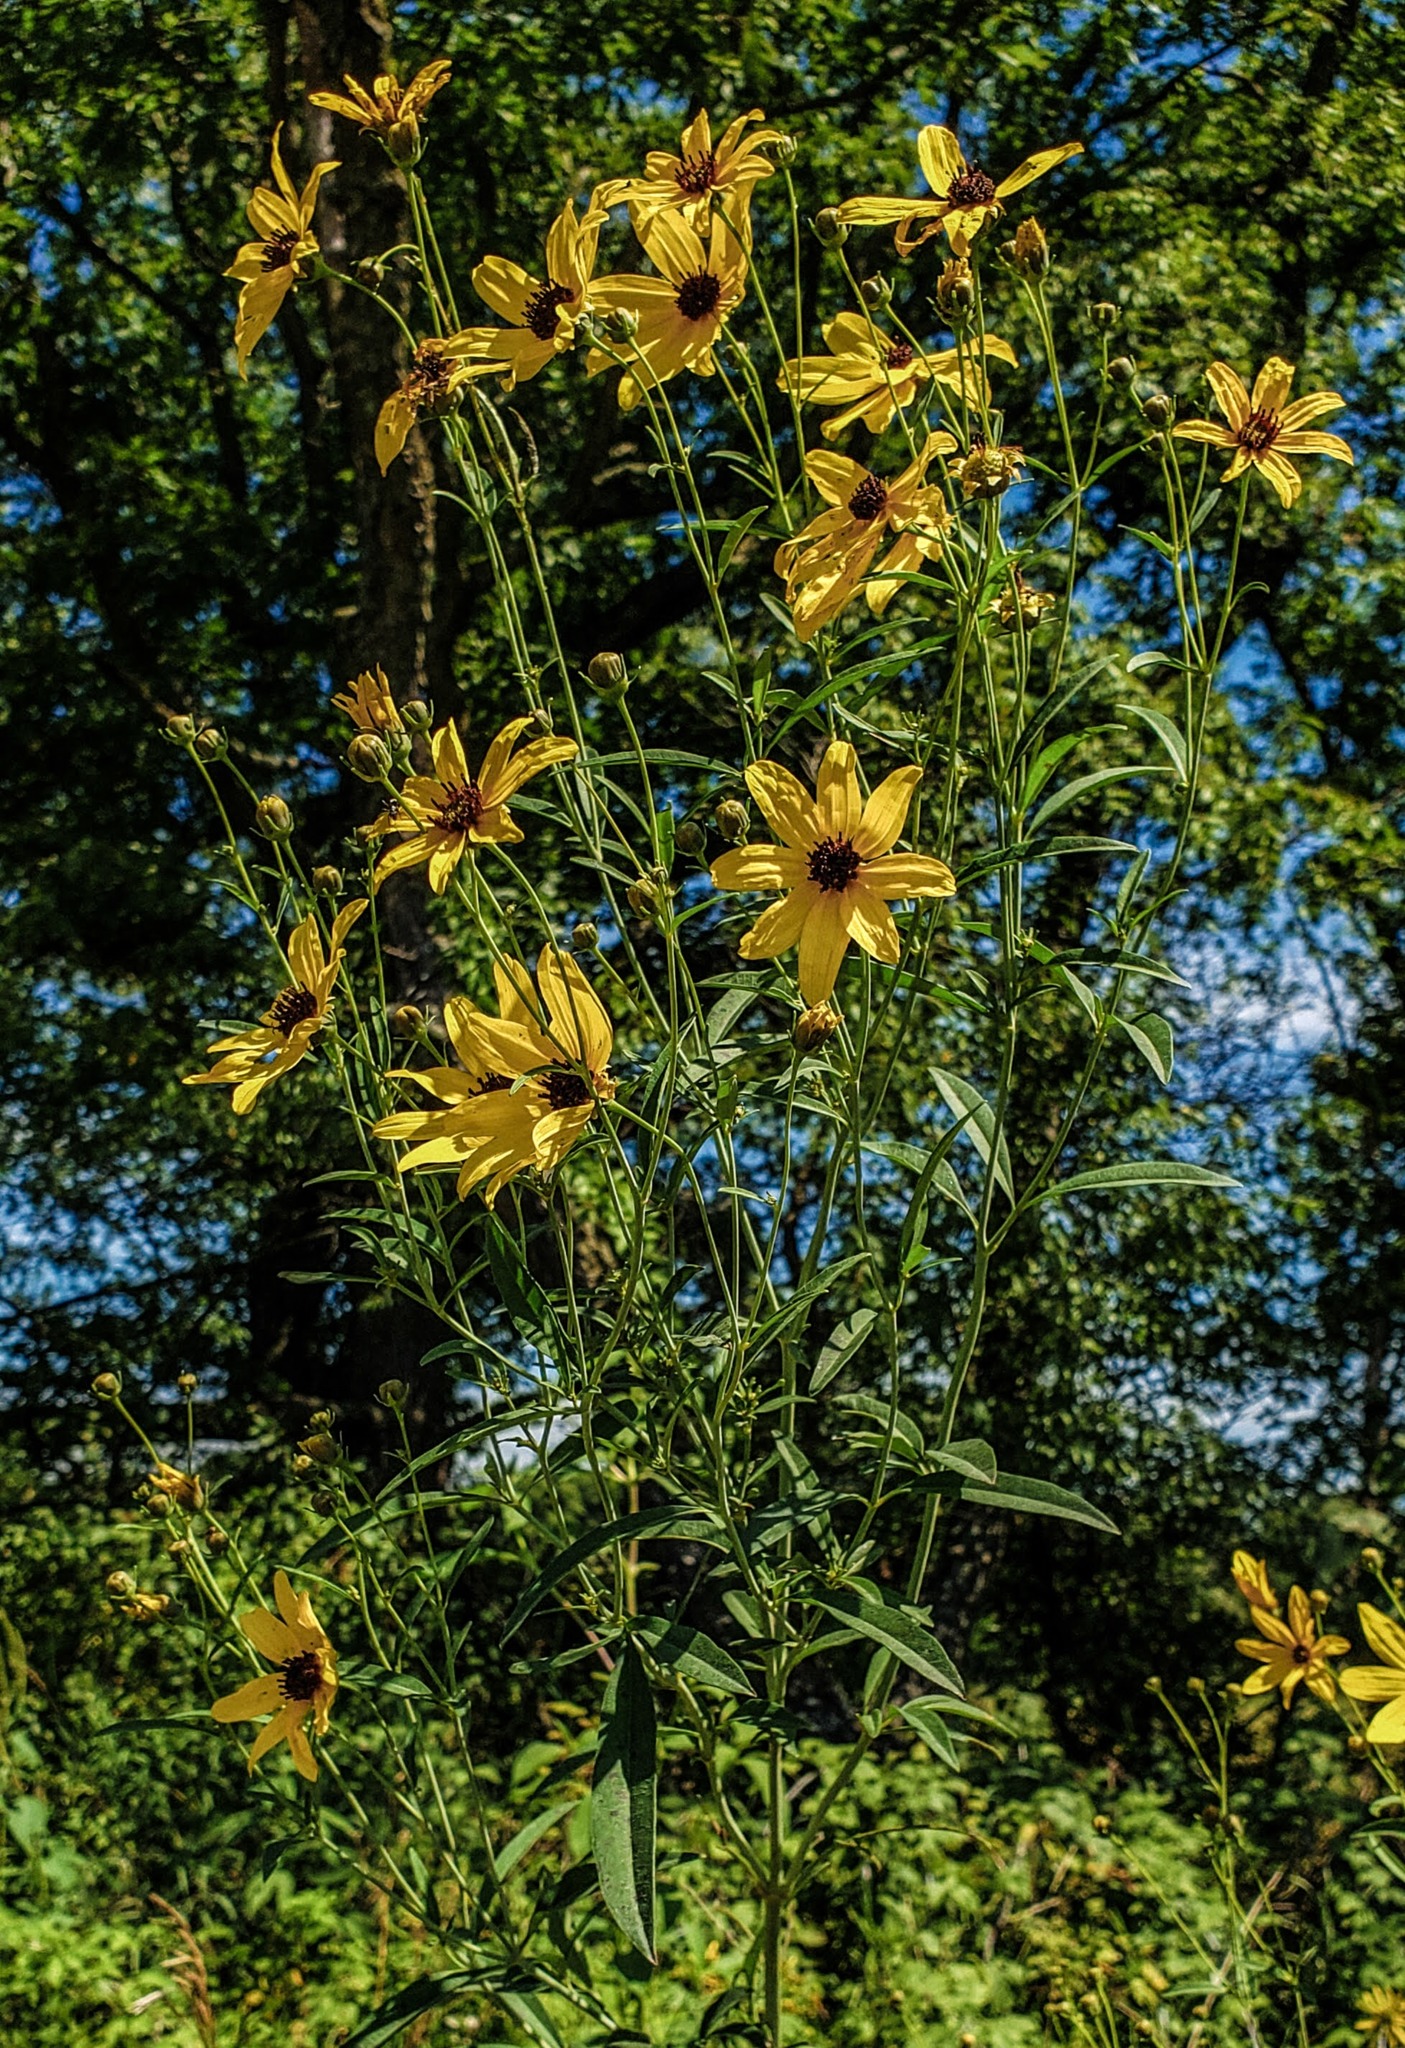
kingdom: Plantae
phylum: Tracheophyta
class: Magnoliopsida
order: Asterales
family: Asteraceae
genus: Coreopsis
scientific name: Coreopsis tripteris
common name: Tall coreopsis
